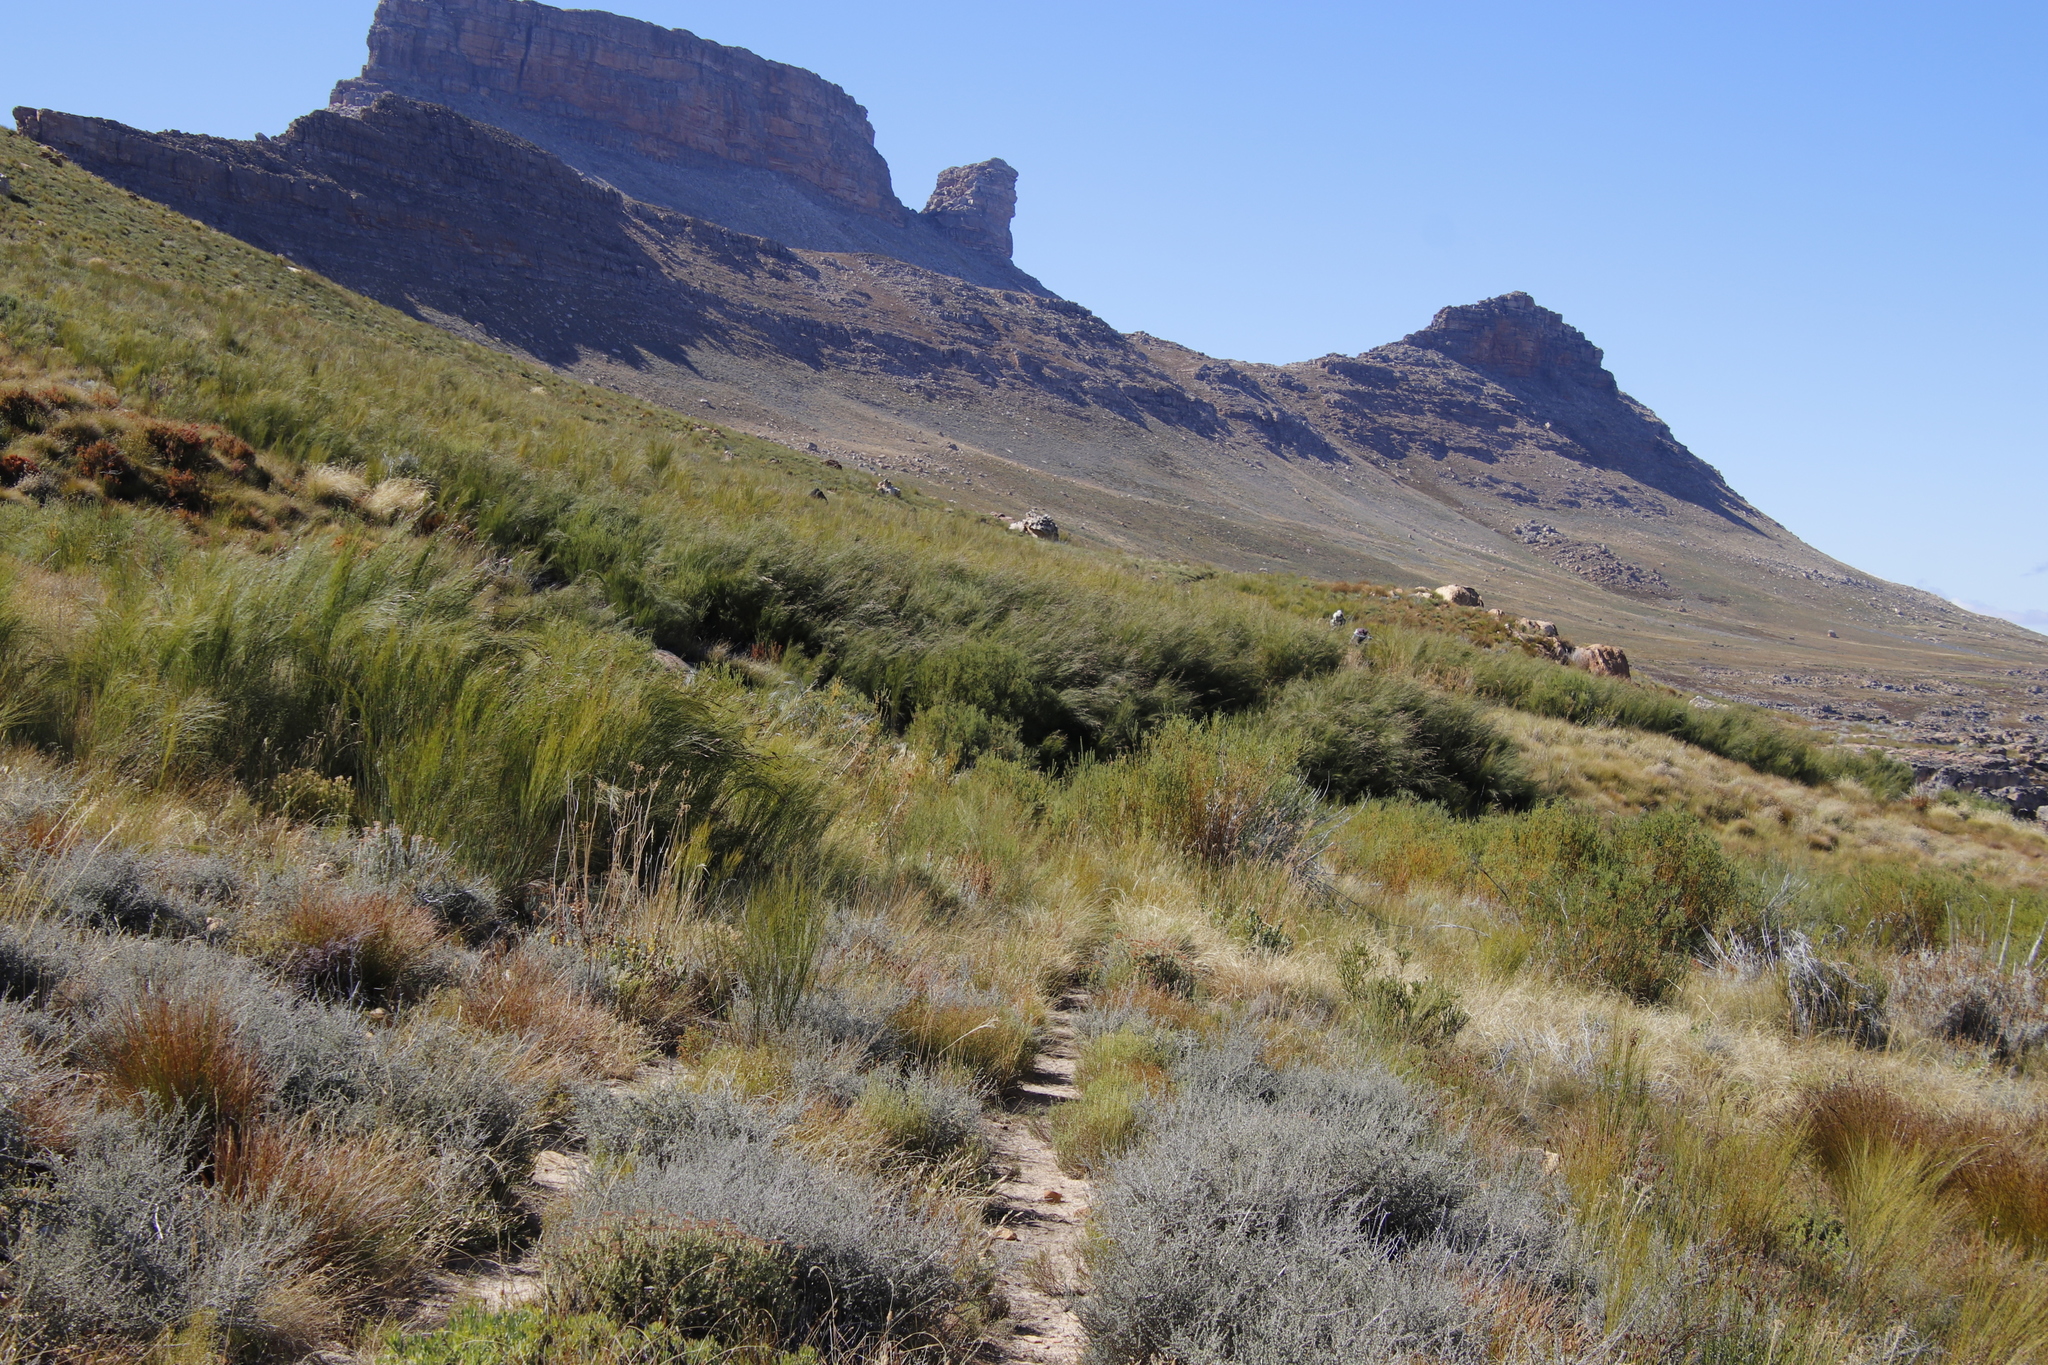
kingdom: Plantae
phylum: Tracheophyta
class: Liliopsida
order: Poales
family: Restionaceae
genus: Cannomois
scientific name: Cannomois virgata
